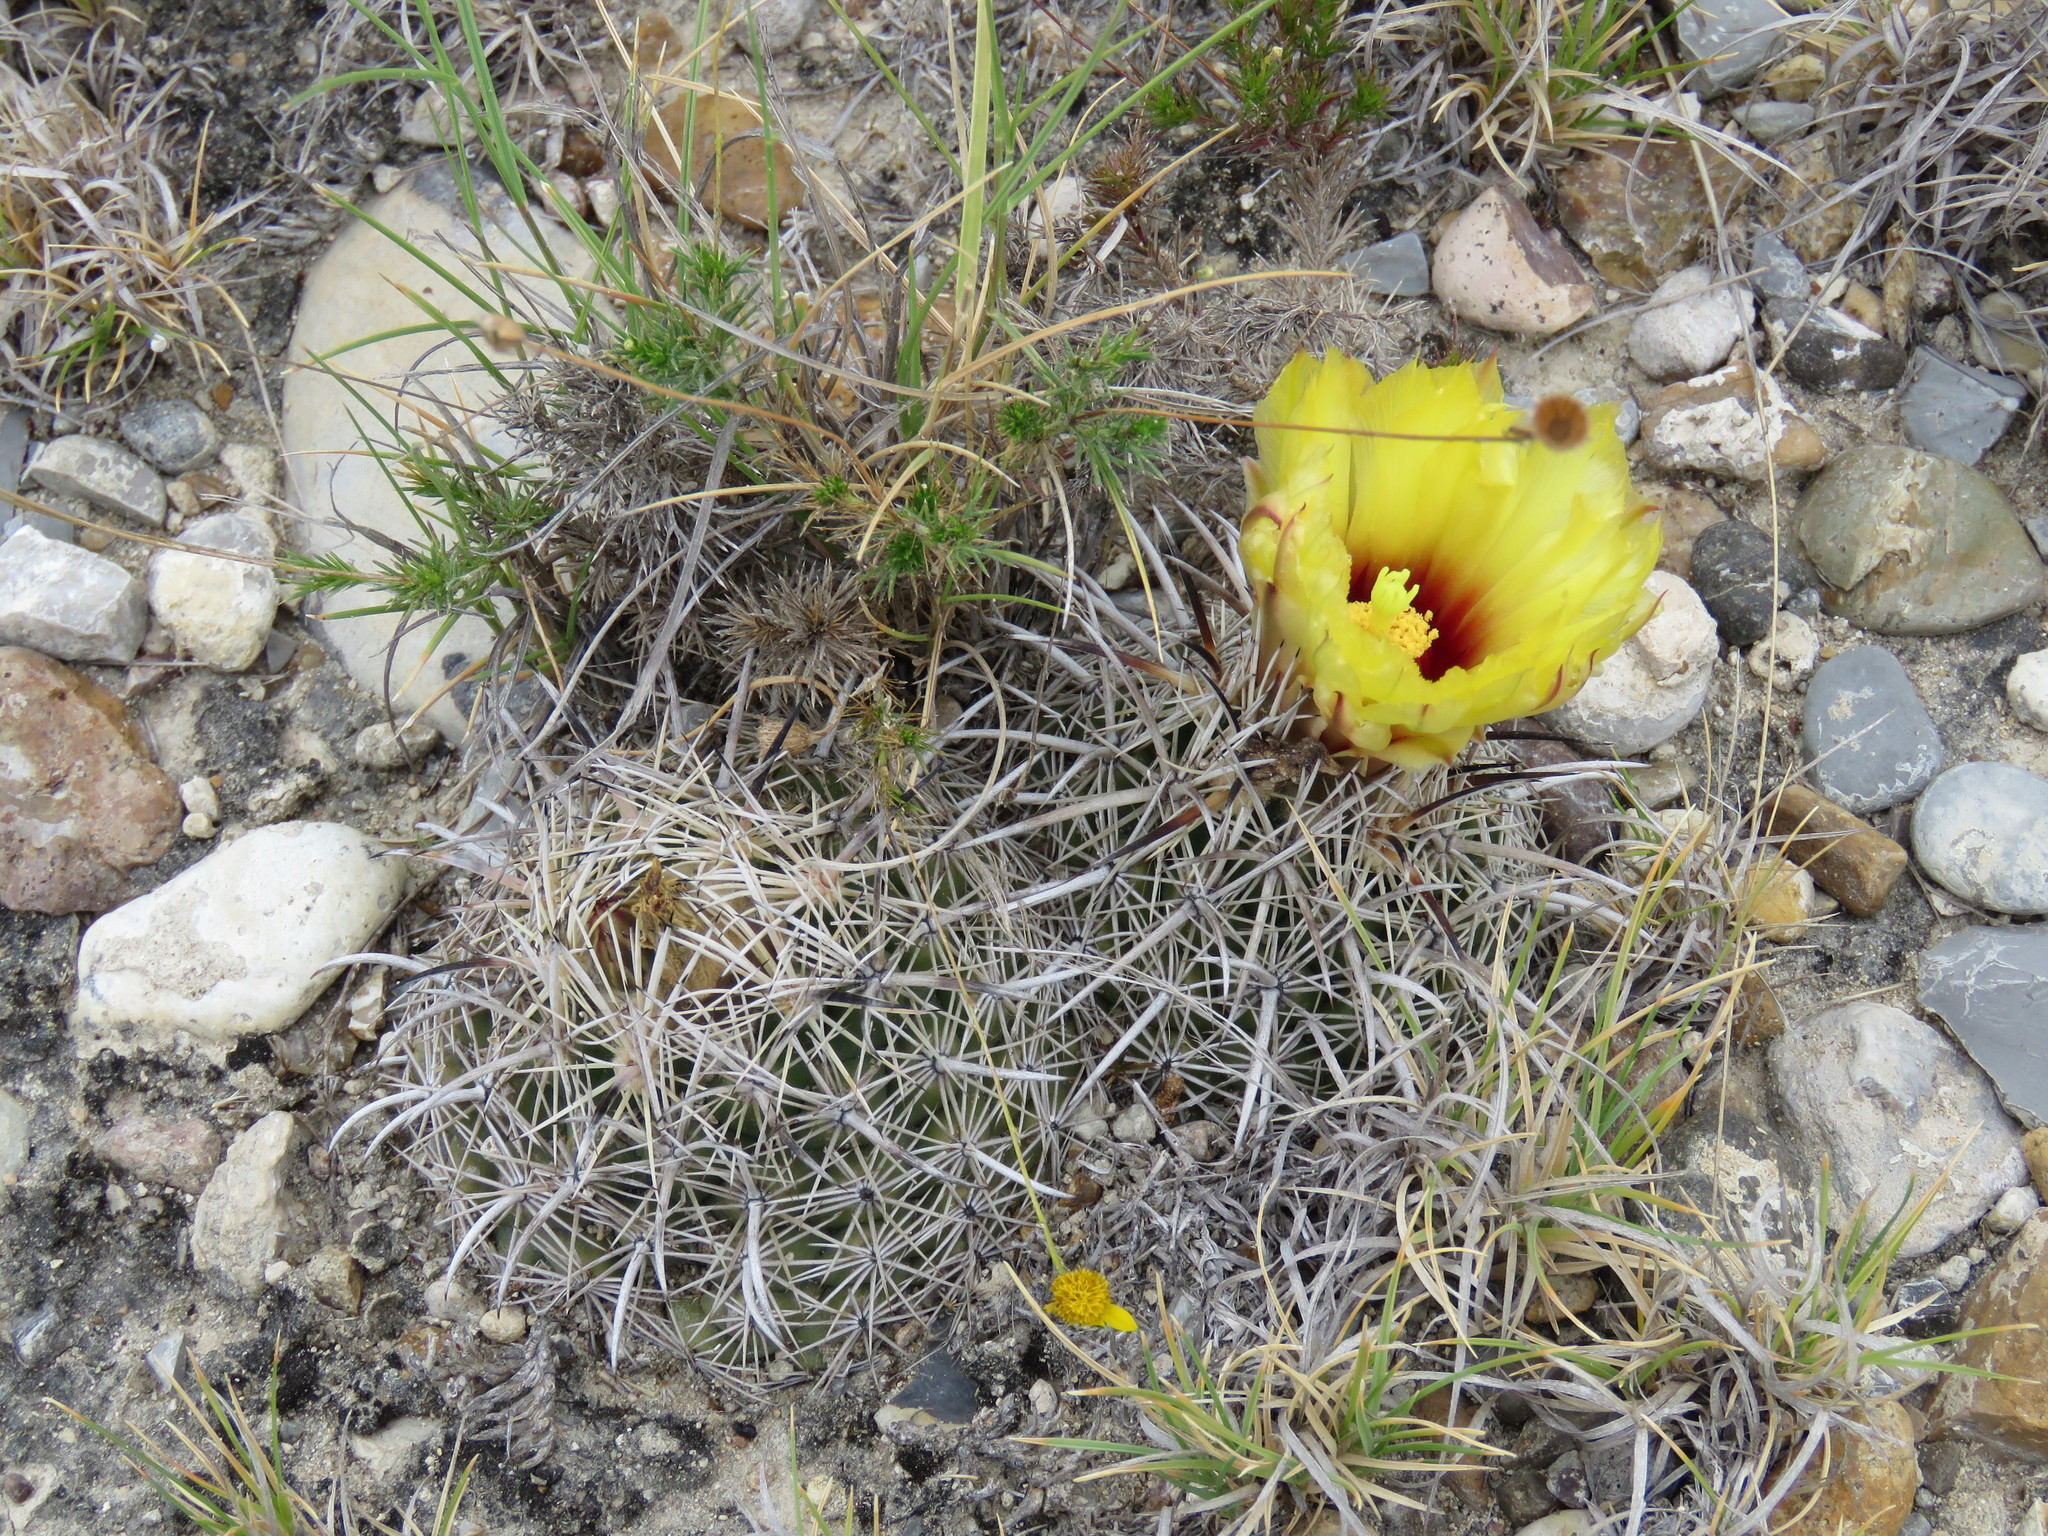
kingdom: Plantae
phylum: Tracheophyta
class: Magnoliopsida
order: Caryophyllales
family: Cactaceae
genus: Coryphantha
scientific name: Coryphantha salinensis
